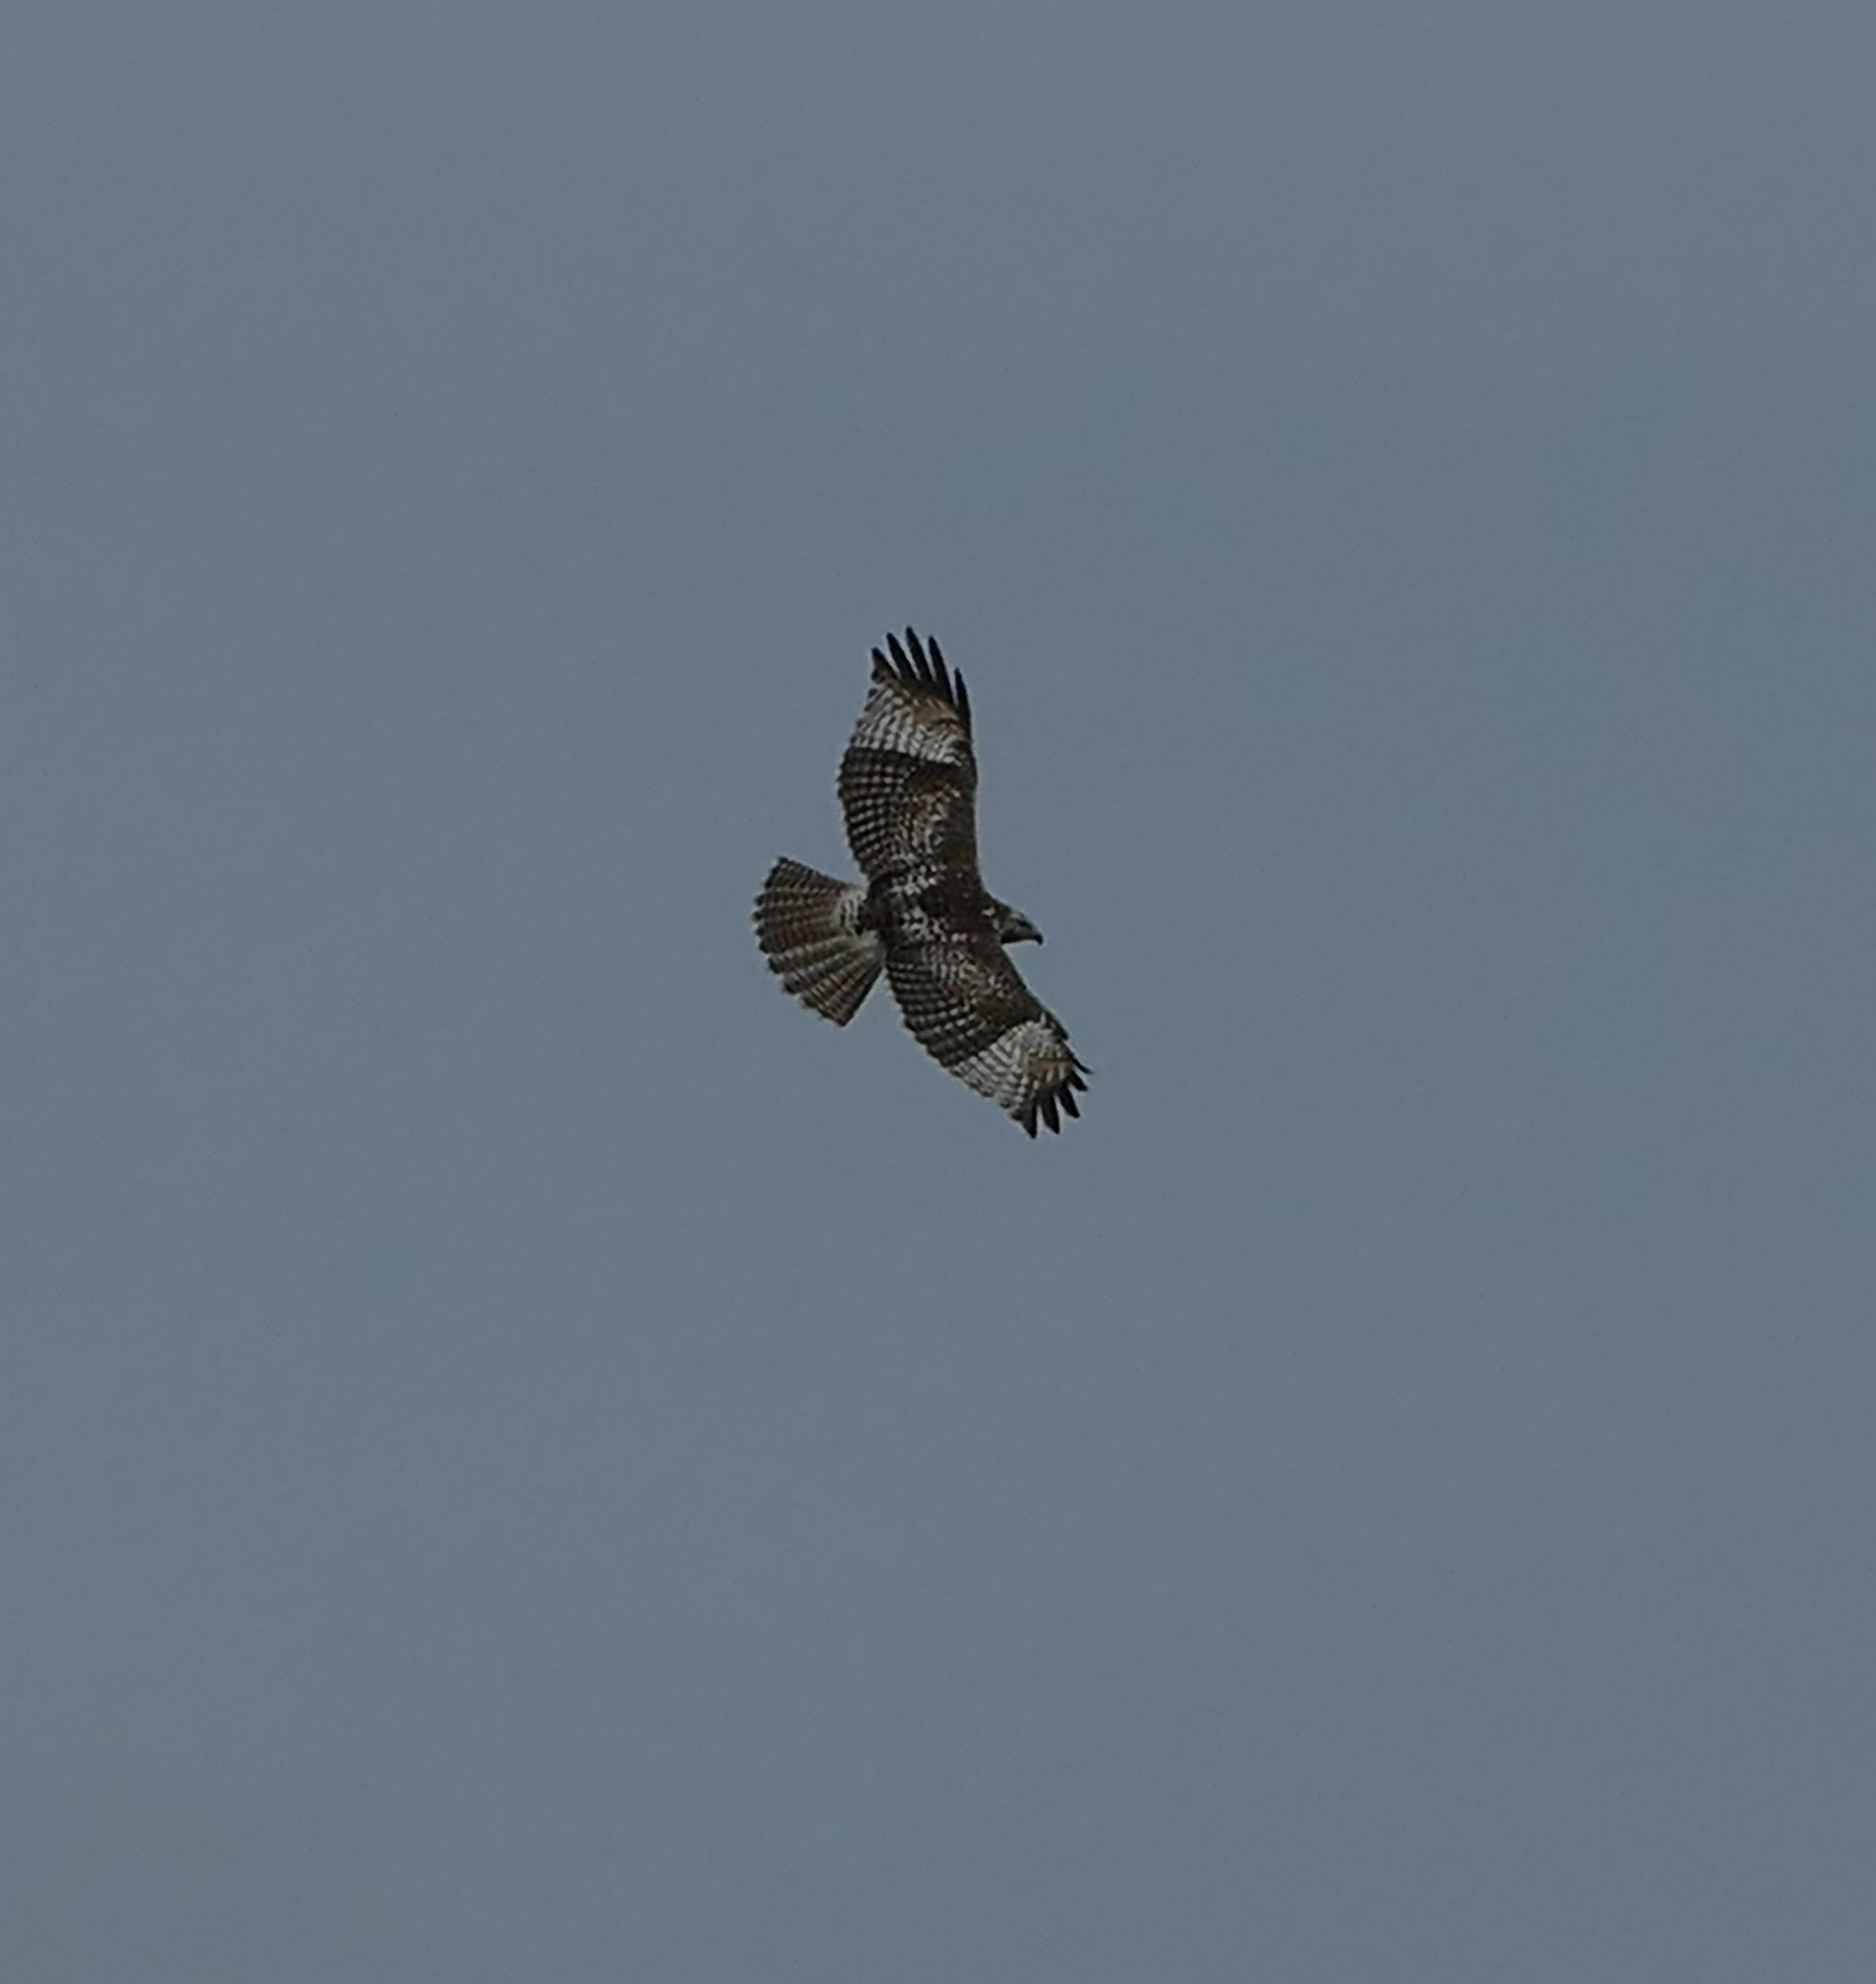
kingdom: Animalia
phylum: Chordata
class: Aves
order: Accipitriformes
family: Accipitridae
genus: Buteo
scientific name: Buteo jamaicensis
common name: Red-tailed hawk
